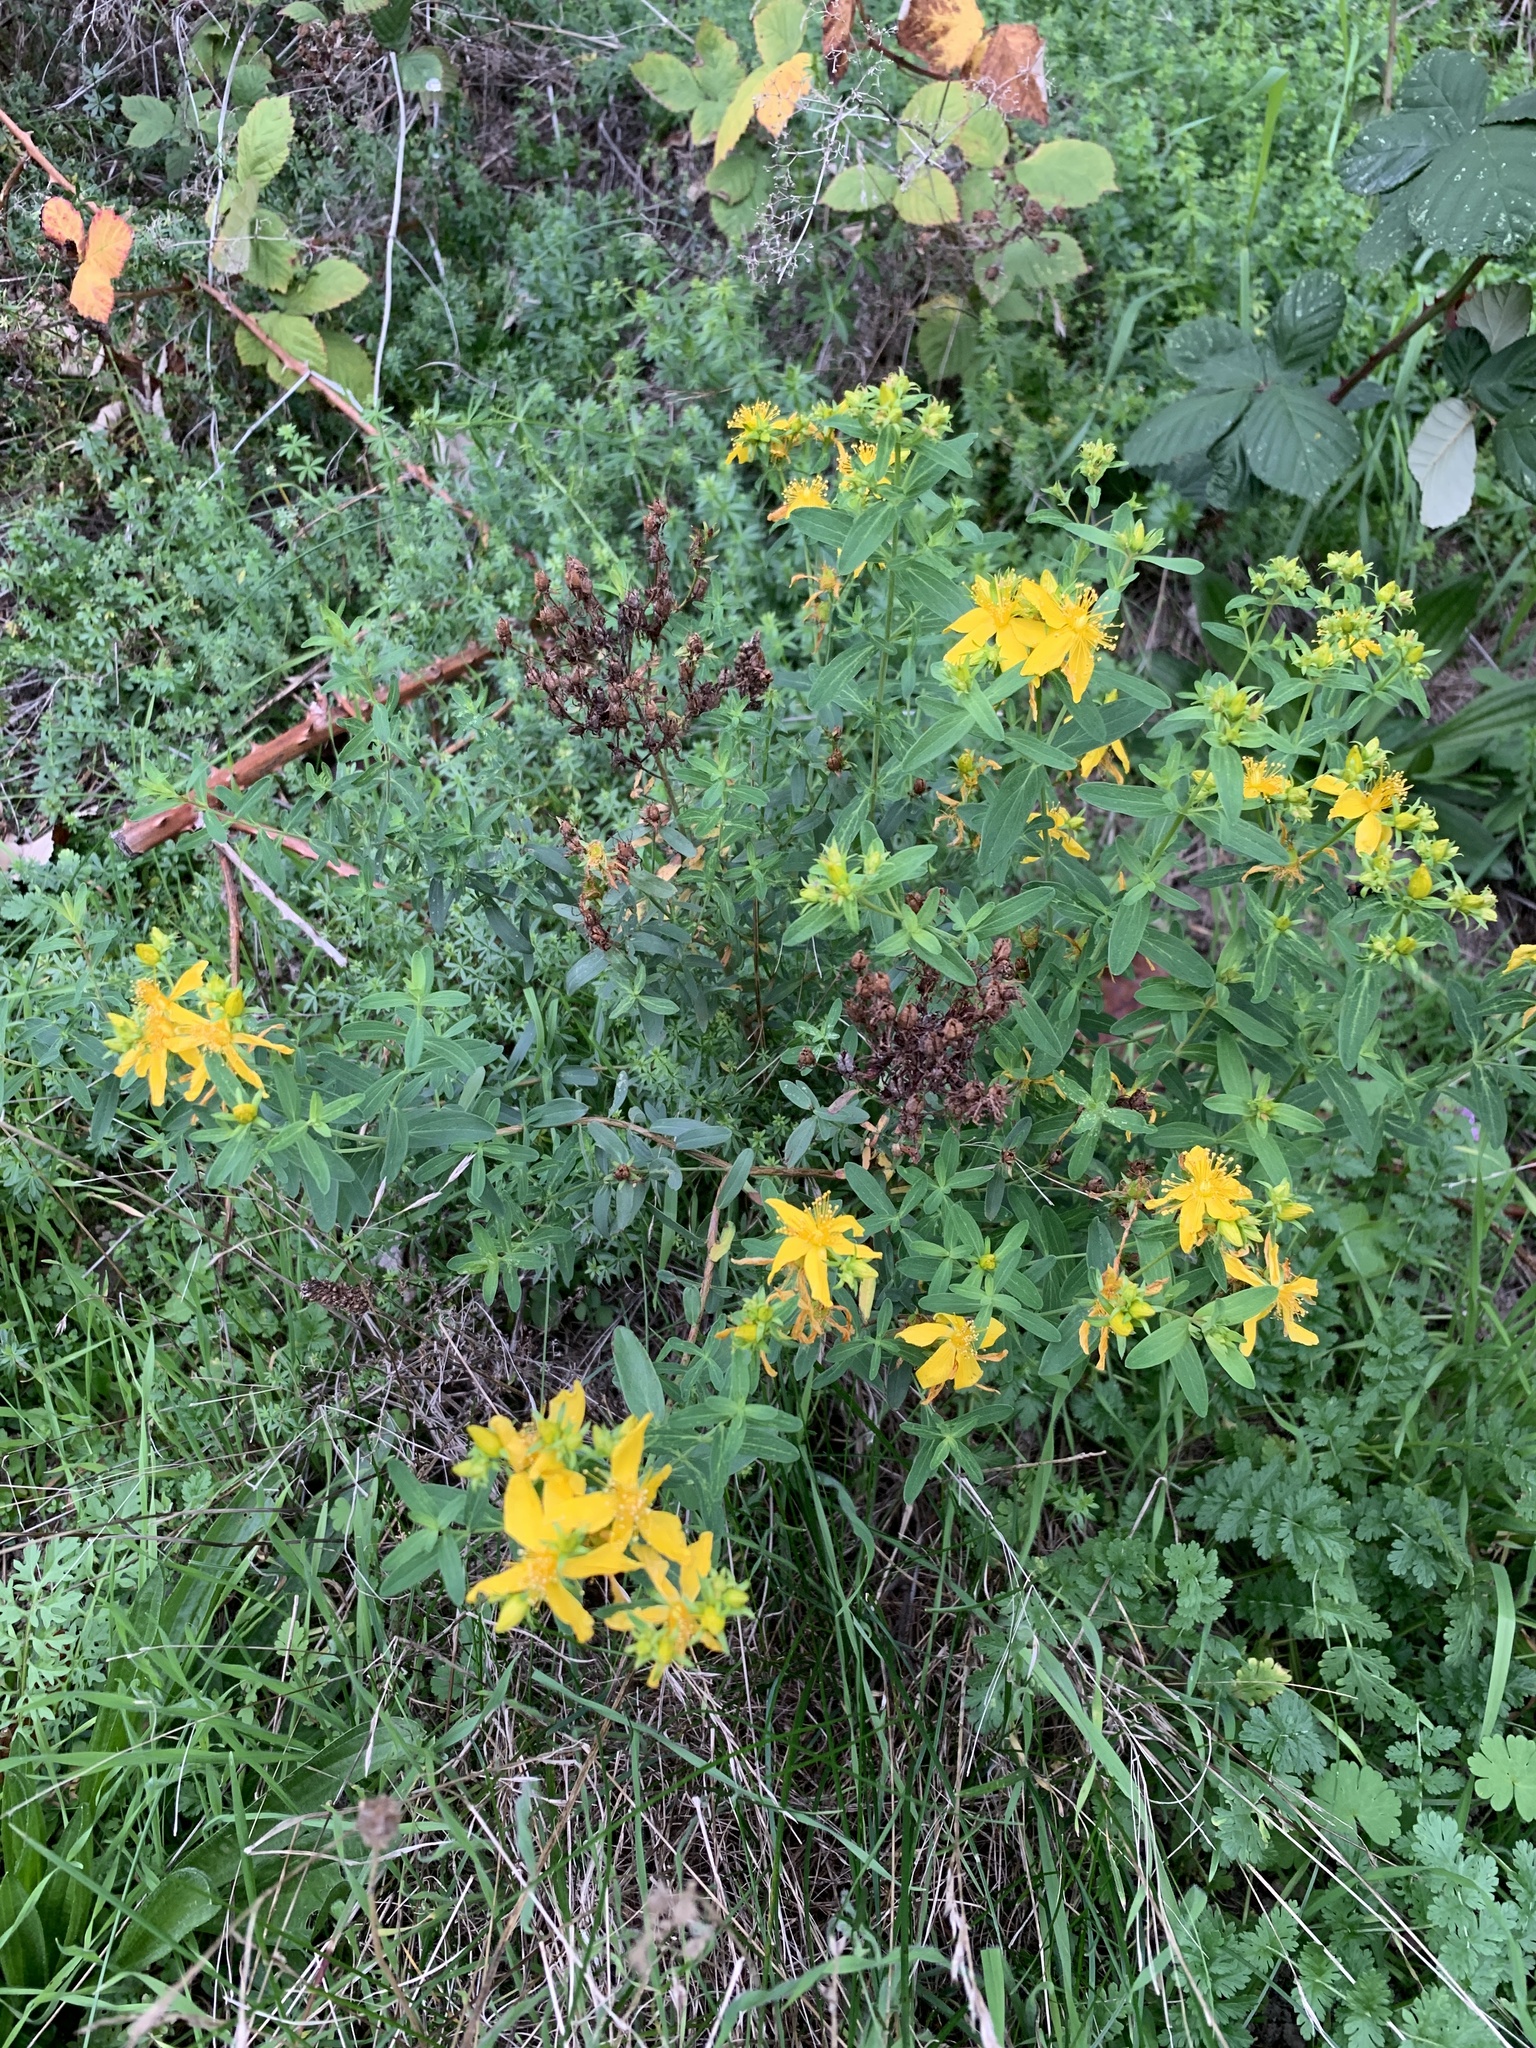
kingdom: Plantae
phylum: Tracheophyta
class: Magnoliopsida
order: Malpighiales
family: Hypericaceae
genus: Hypericum
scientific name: Hypericum perforatum
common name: Common st. johnswort
